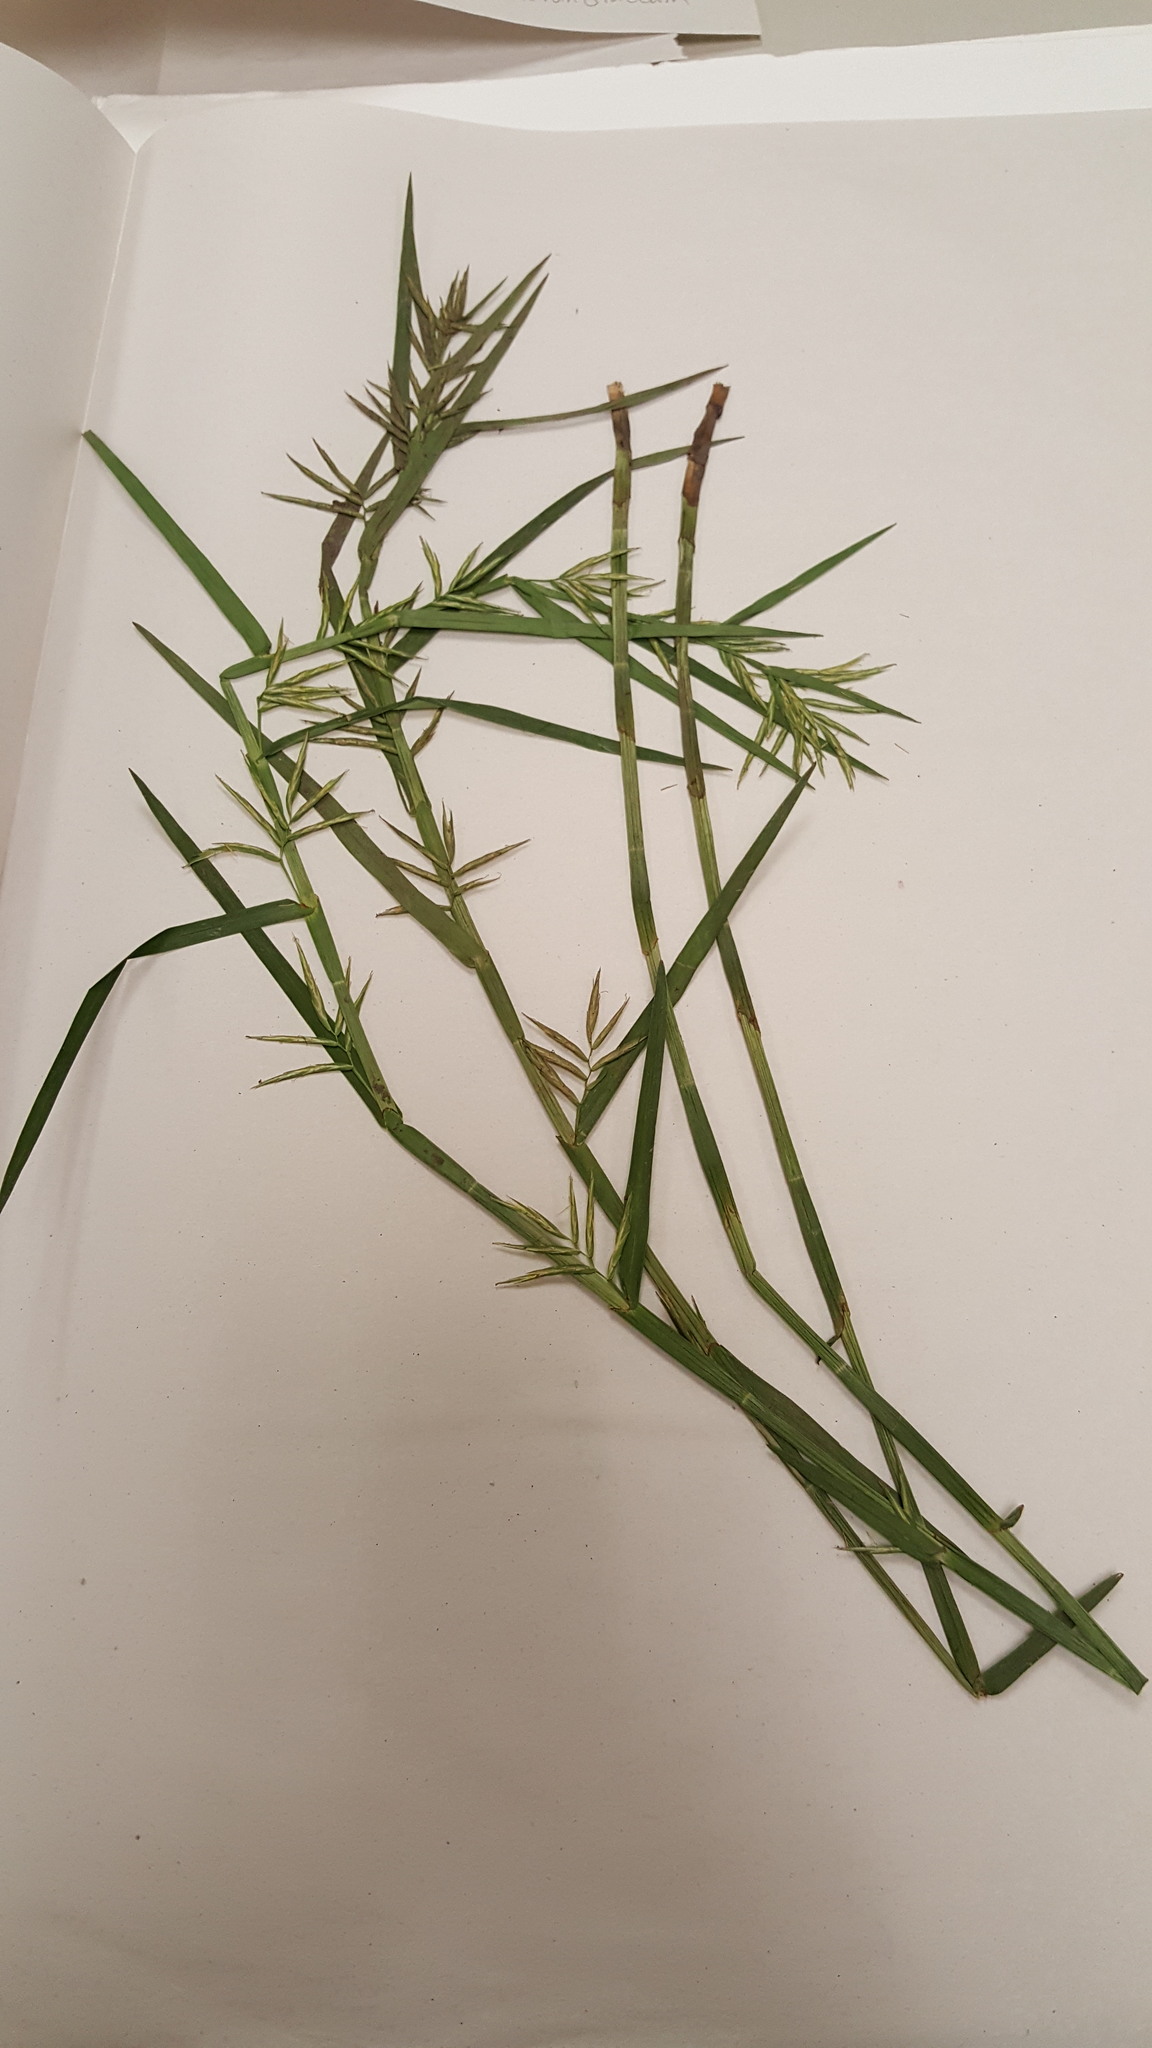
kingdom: Plantae
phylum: Tracheophyta
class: Liliopsida
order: Poales
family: Cyperaceae
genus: Dulichium
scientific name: Dulichium arundinaceum
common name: Three-way sedge
